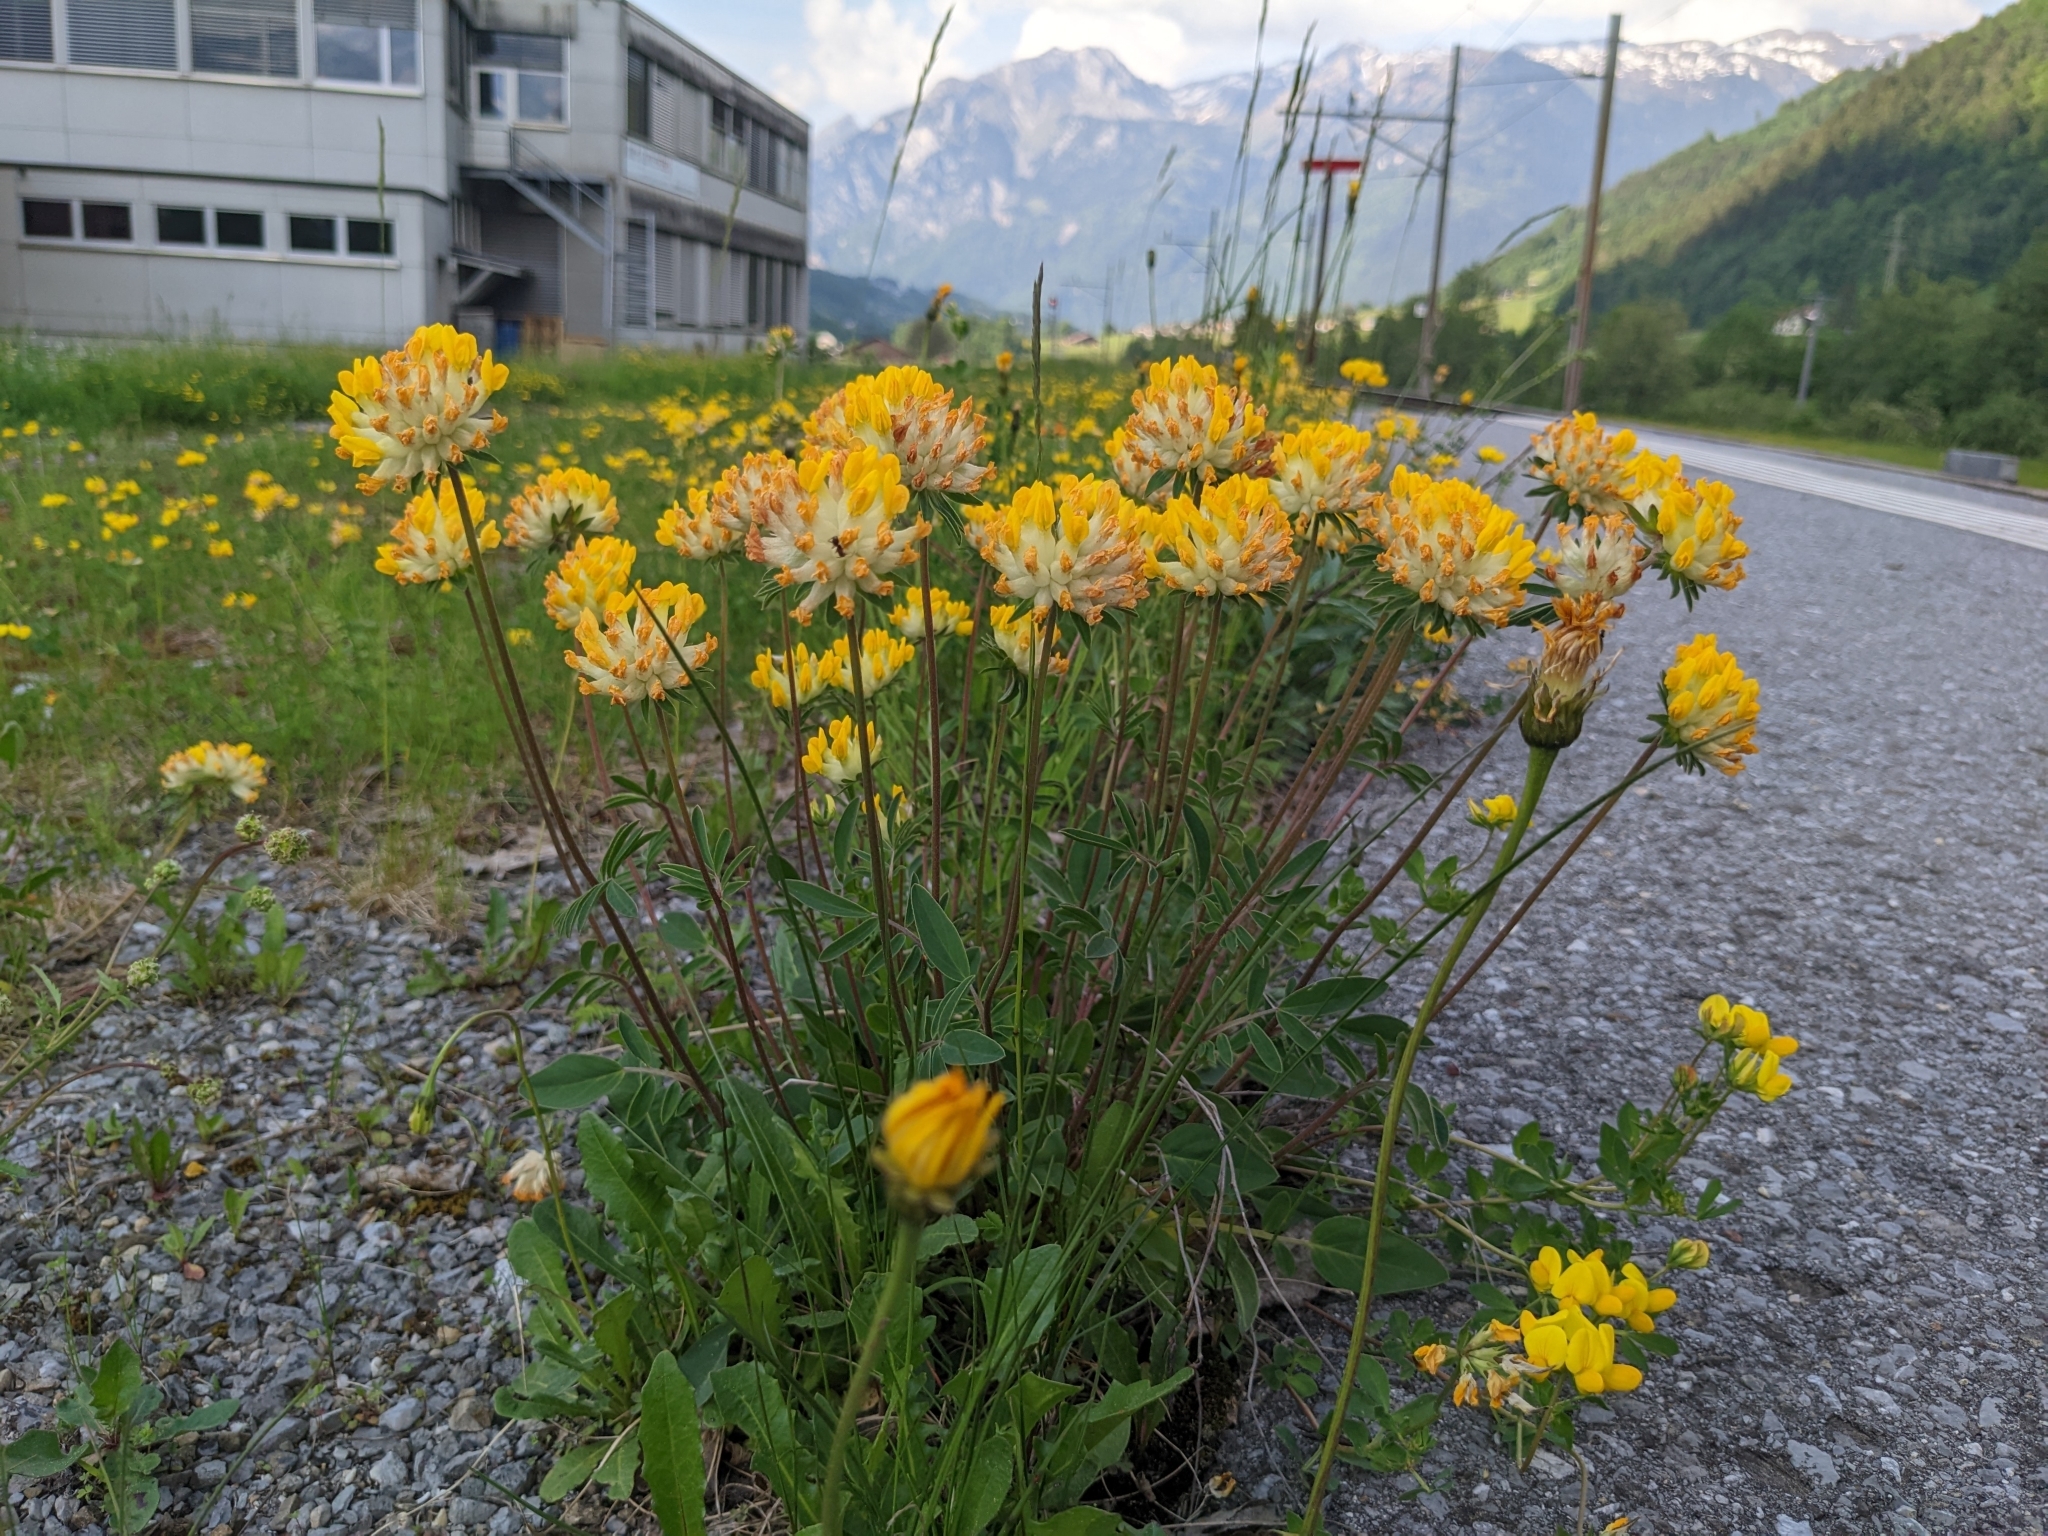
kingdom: Plantae
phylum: Tracheophyta
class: Magnoliopsida
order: Fabales
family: Fabaceae
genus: Anthyllis
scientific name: Anthyllis vulneraria
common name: Kidney vetch
